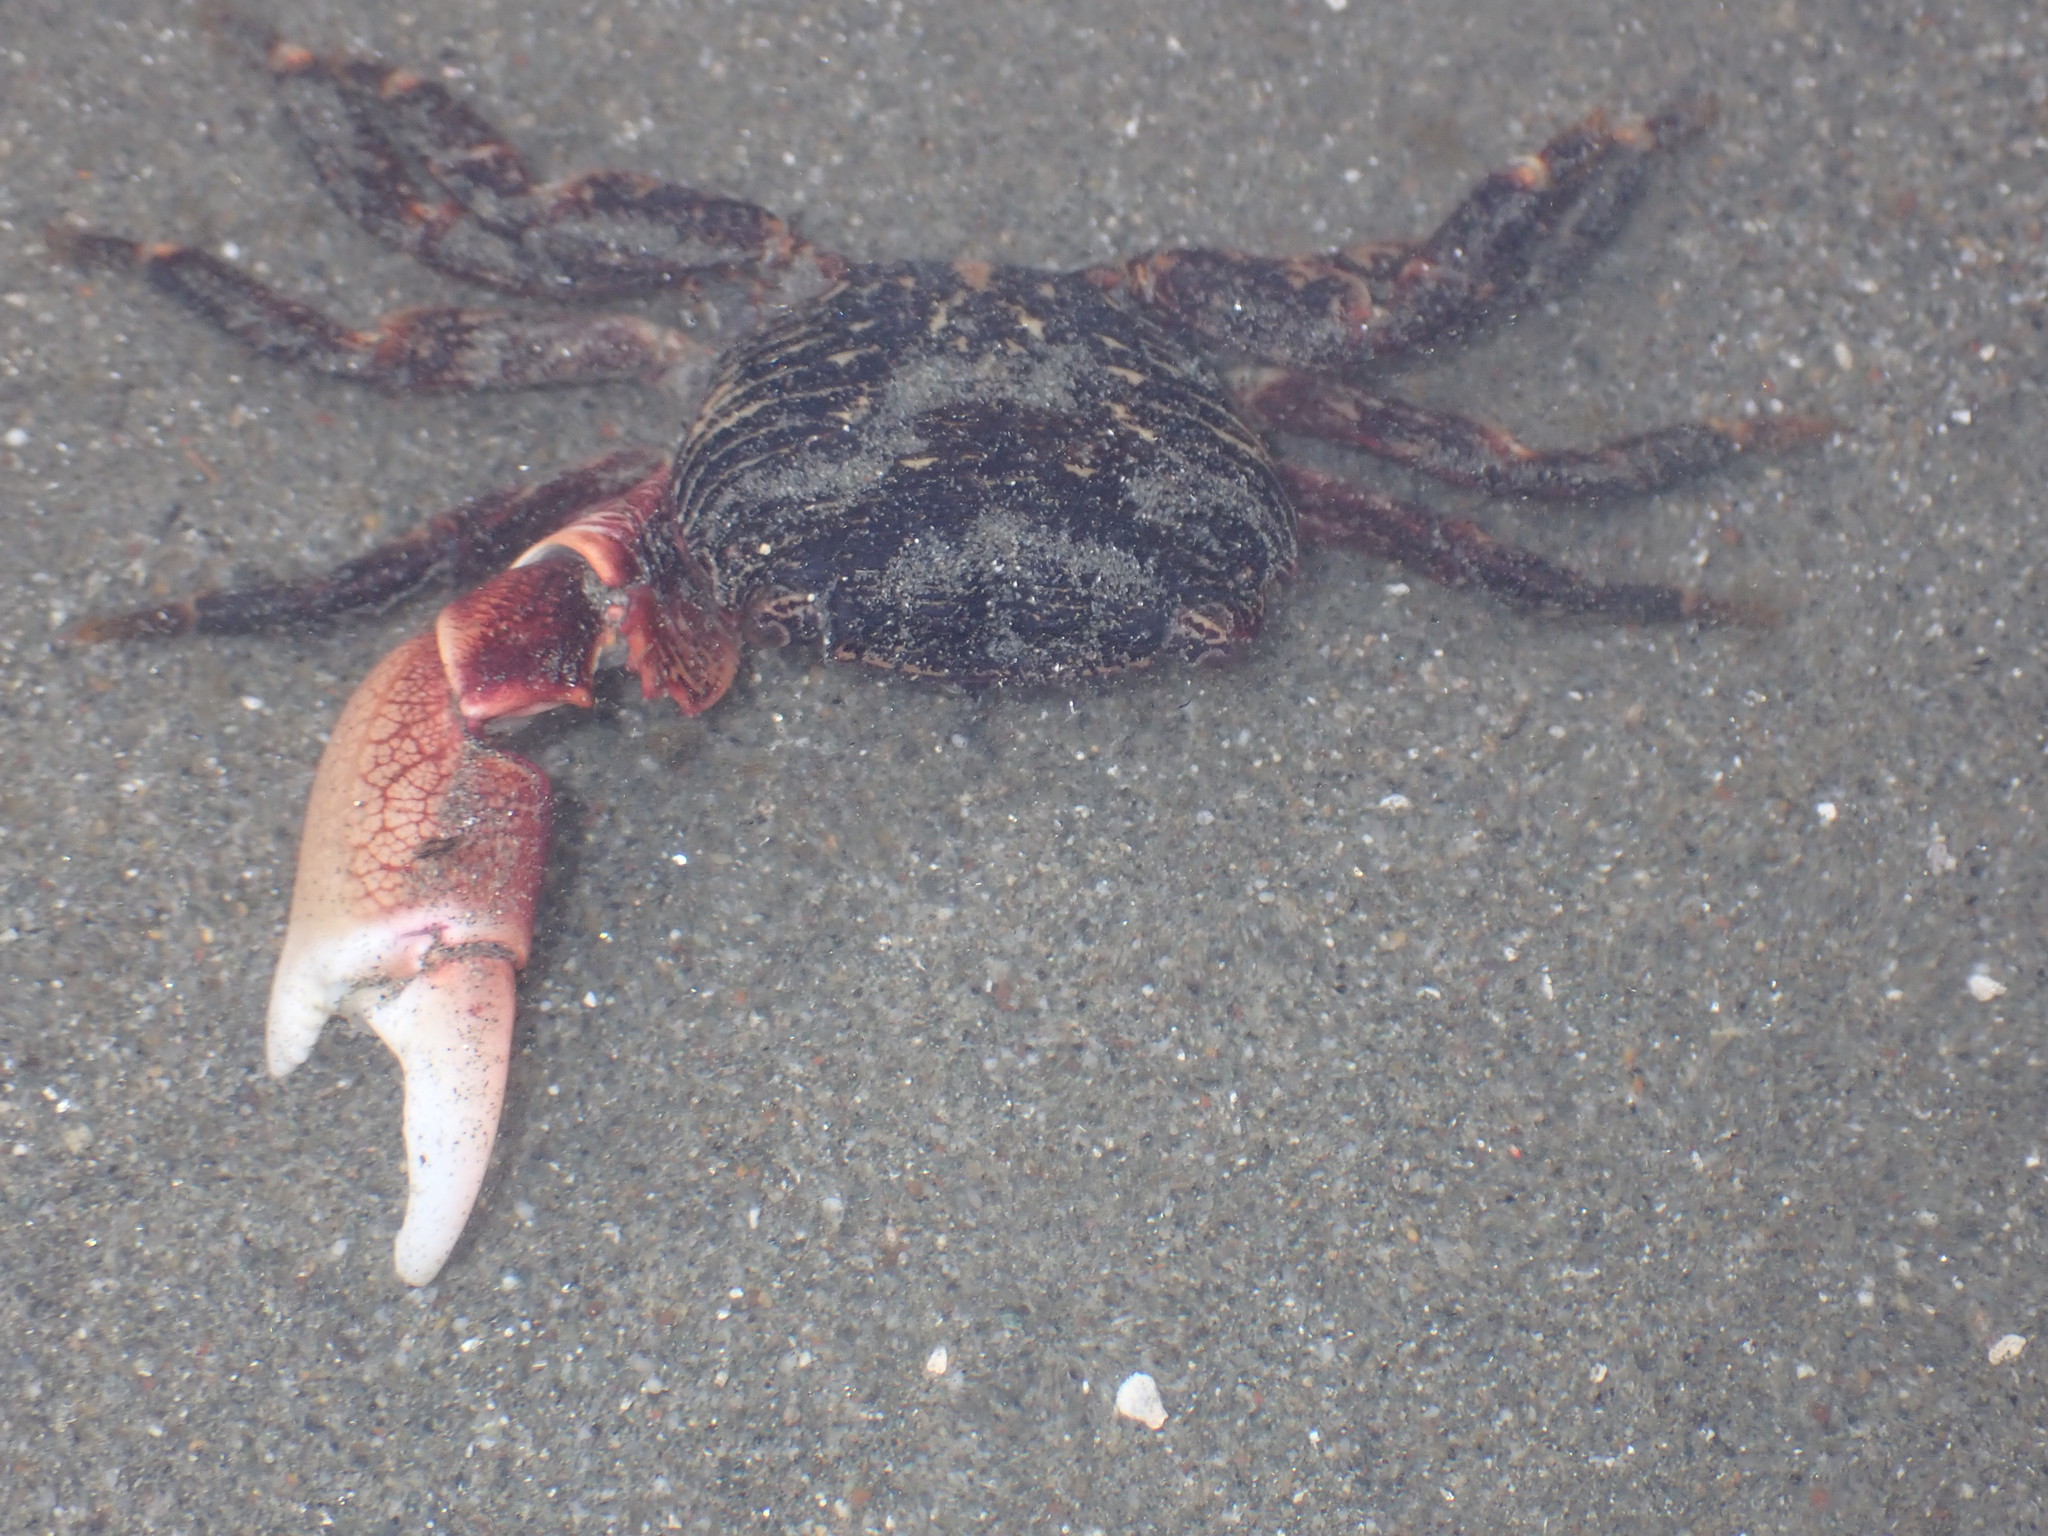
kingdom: Animalia
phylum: Arthropoda
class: Malacostraca
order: Decapoda
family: Grapsidae
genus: Pachygrapsus
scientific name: Pachygrapsus crassipes
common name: Striped shore crab
